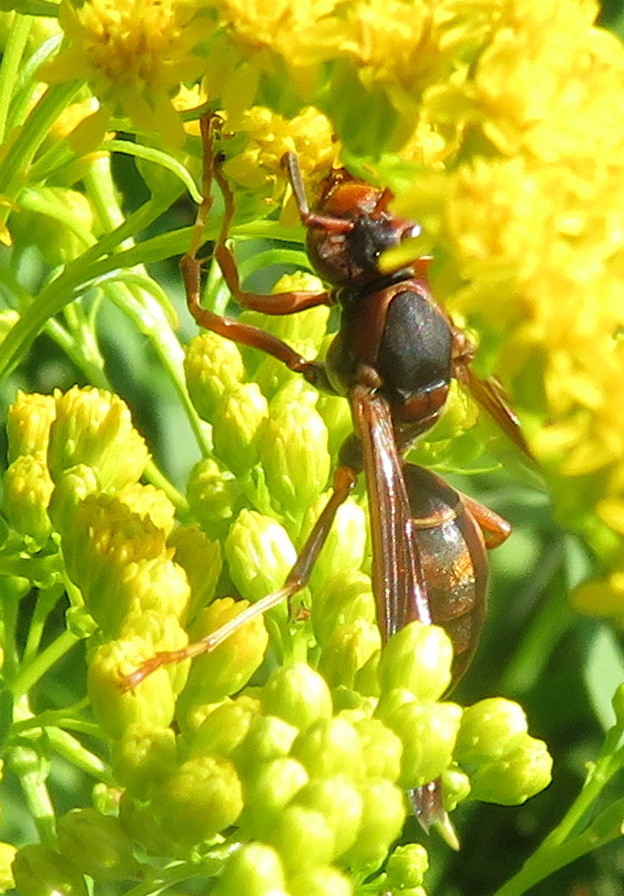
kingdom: Animalia
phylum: Arthropoda
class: Insecta
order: Hymenoptera
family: Eumenidae
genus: Polistes
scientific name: Polistes fuscatus
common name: Dark paper wasp
